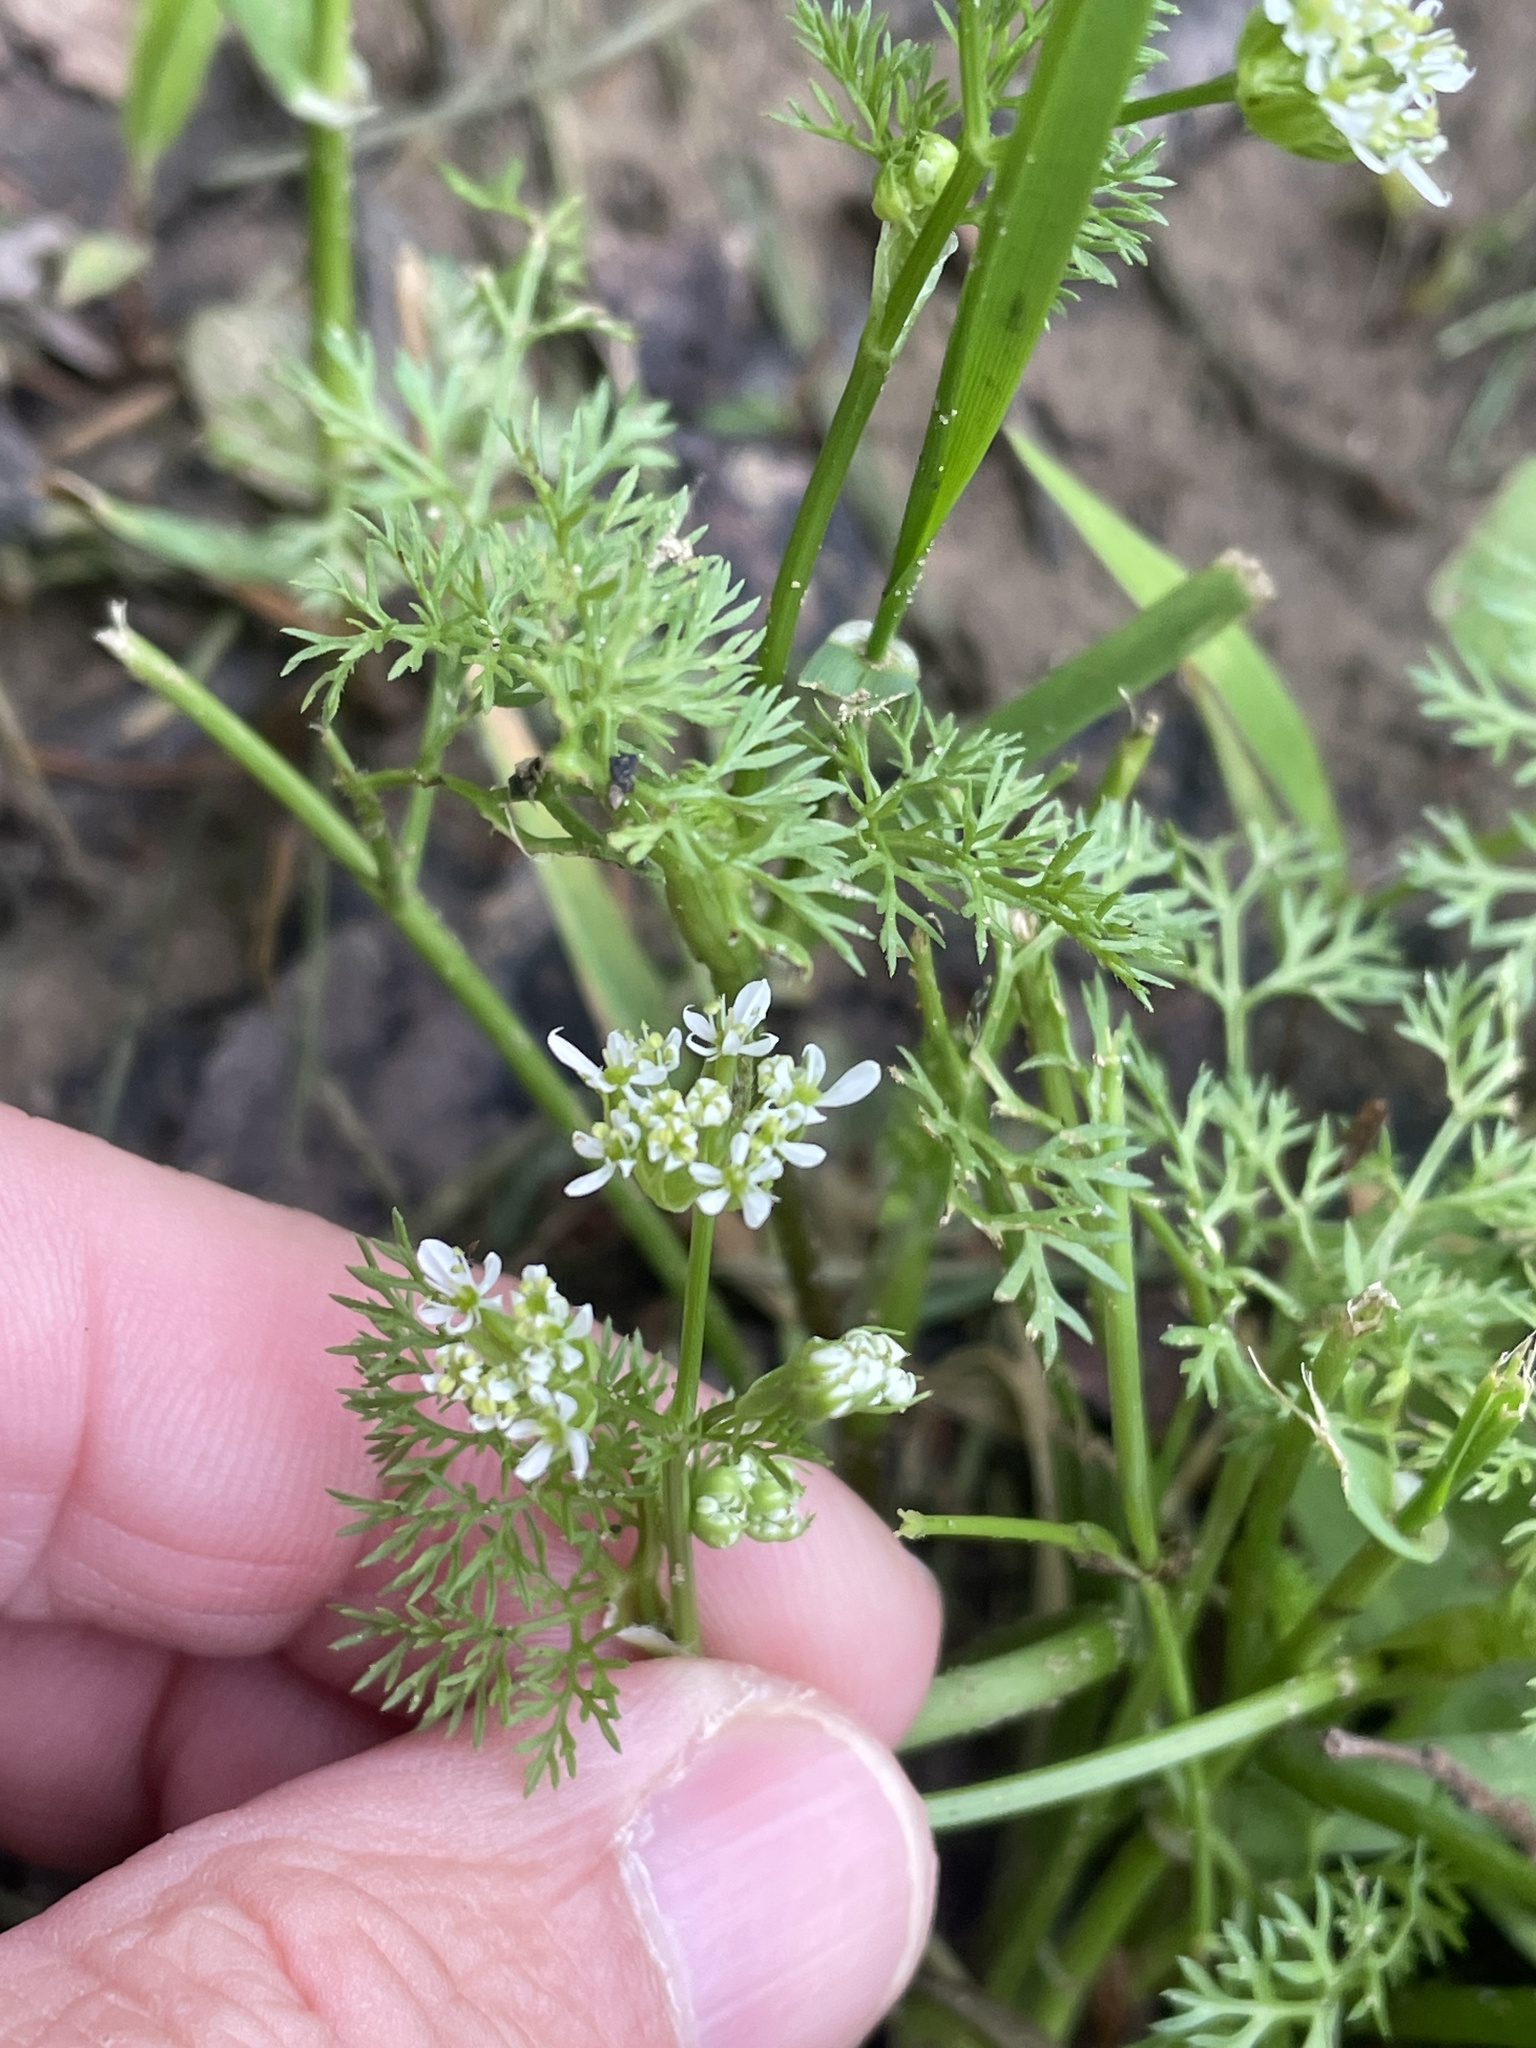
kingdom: Plantae
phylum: Tracheophyta
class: Magnoliopsida
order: Apiales
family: Apiaceae
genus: Scandix
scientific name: Scandix pecten-veneris
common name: Shepherd's-needle
